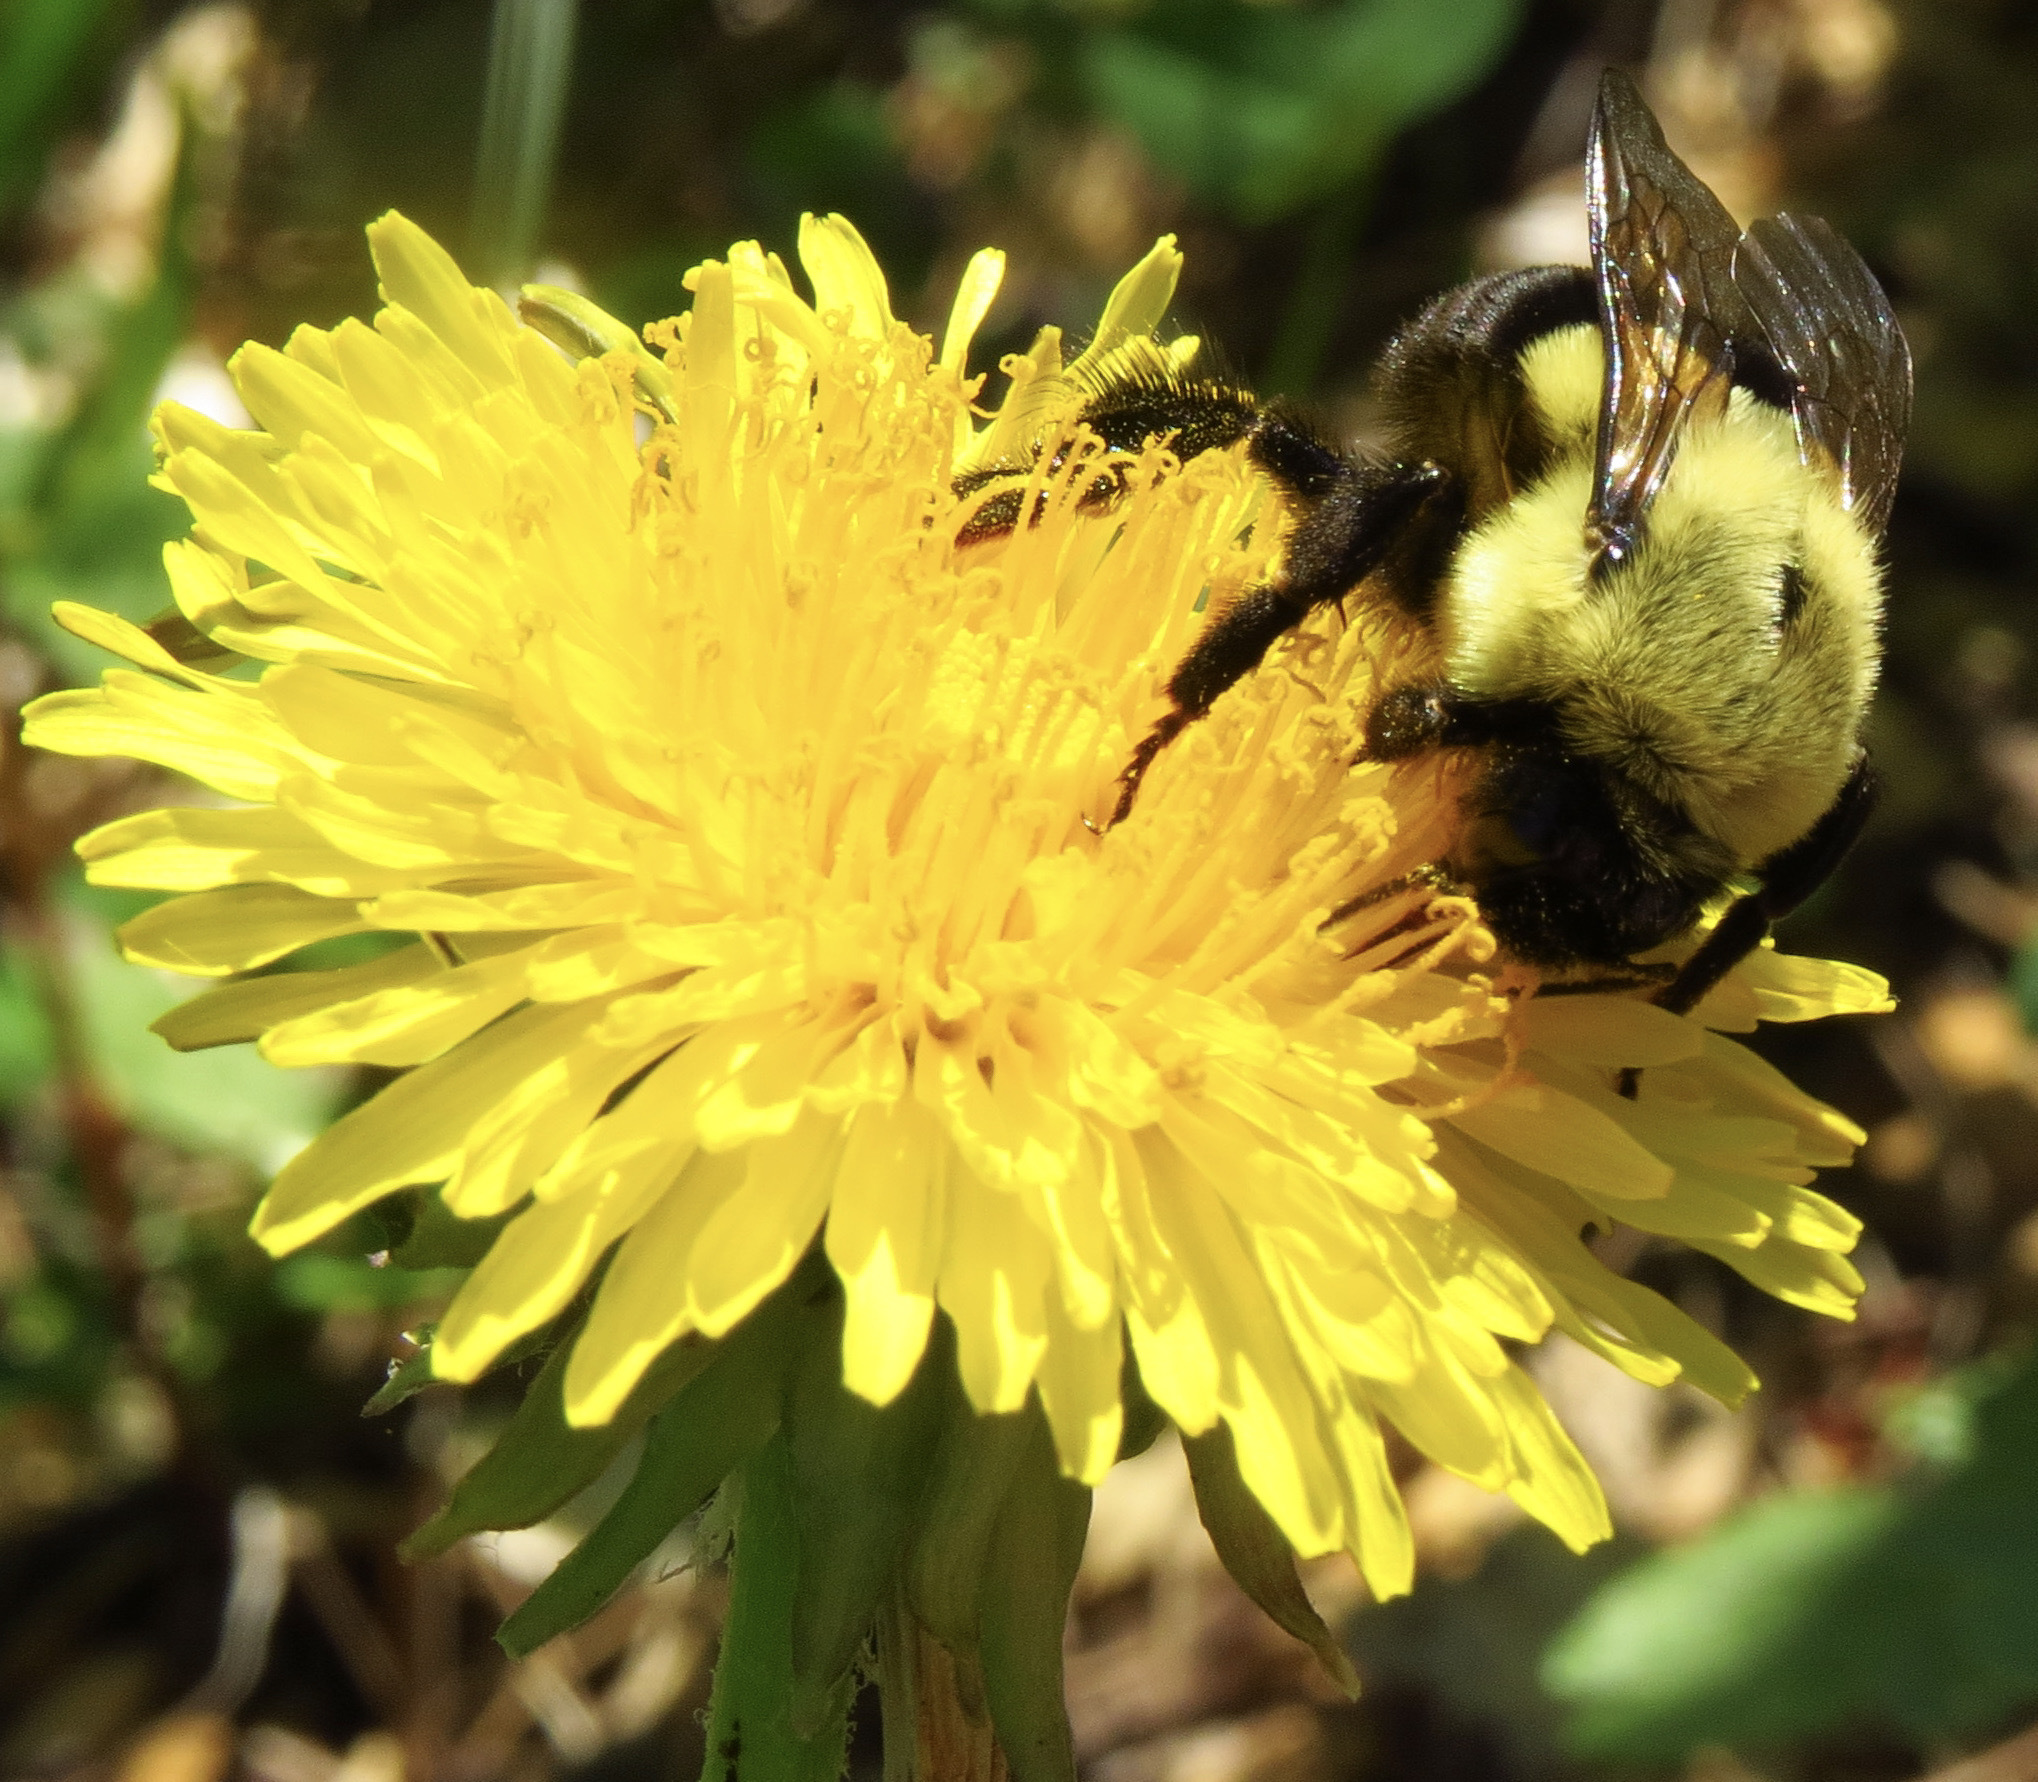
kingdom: Animalia
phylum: Arthropoda
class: Insecta
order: Hymenoptera
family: Apidae
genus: Bombus
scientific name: Bombus impatiens
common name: Common eastern bumble bee
